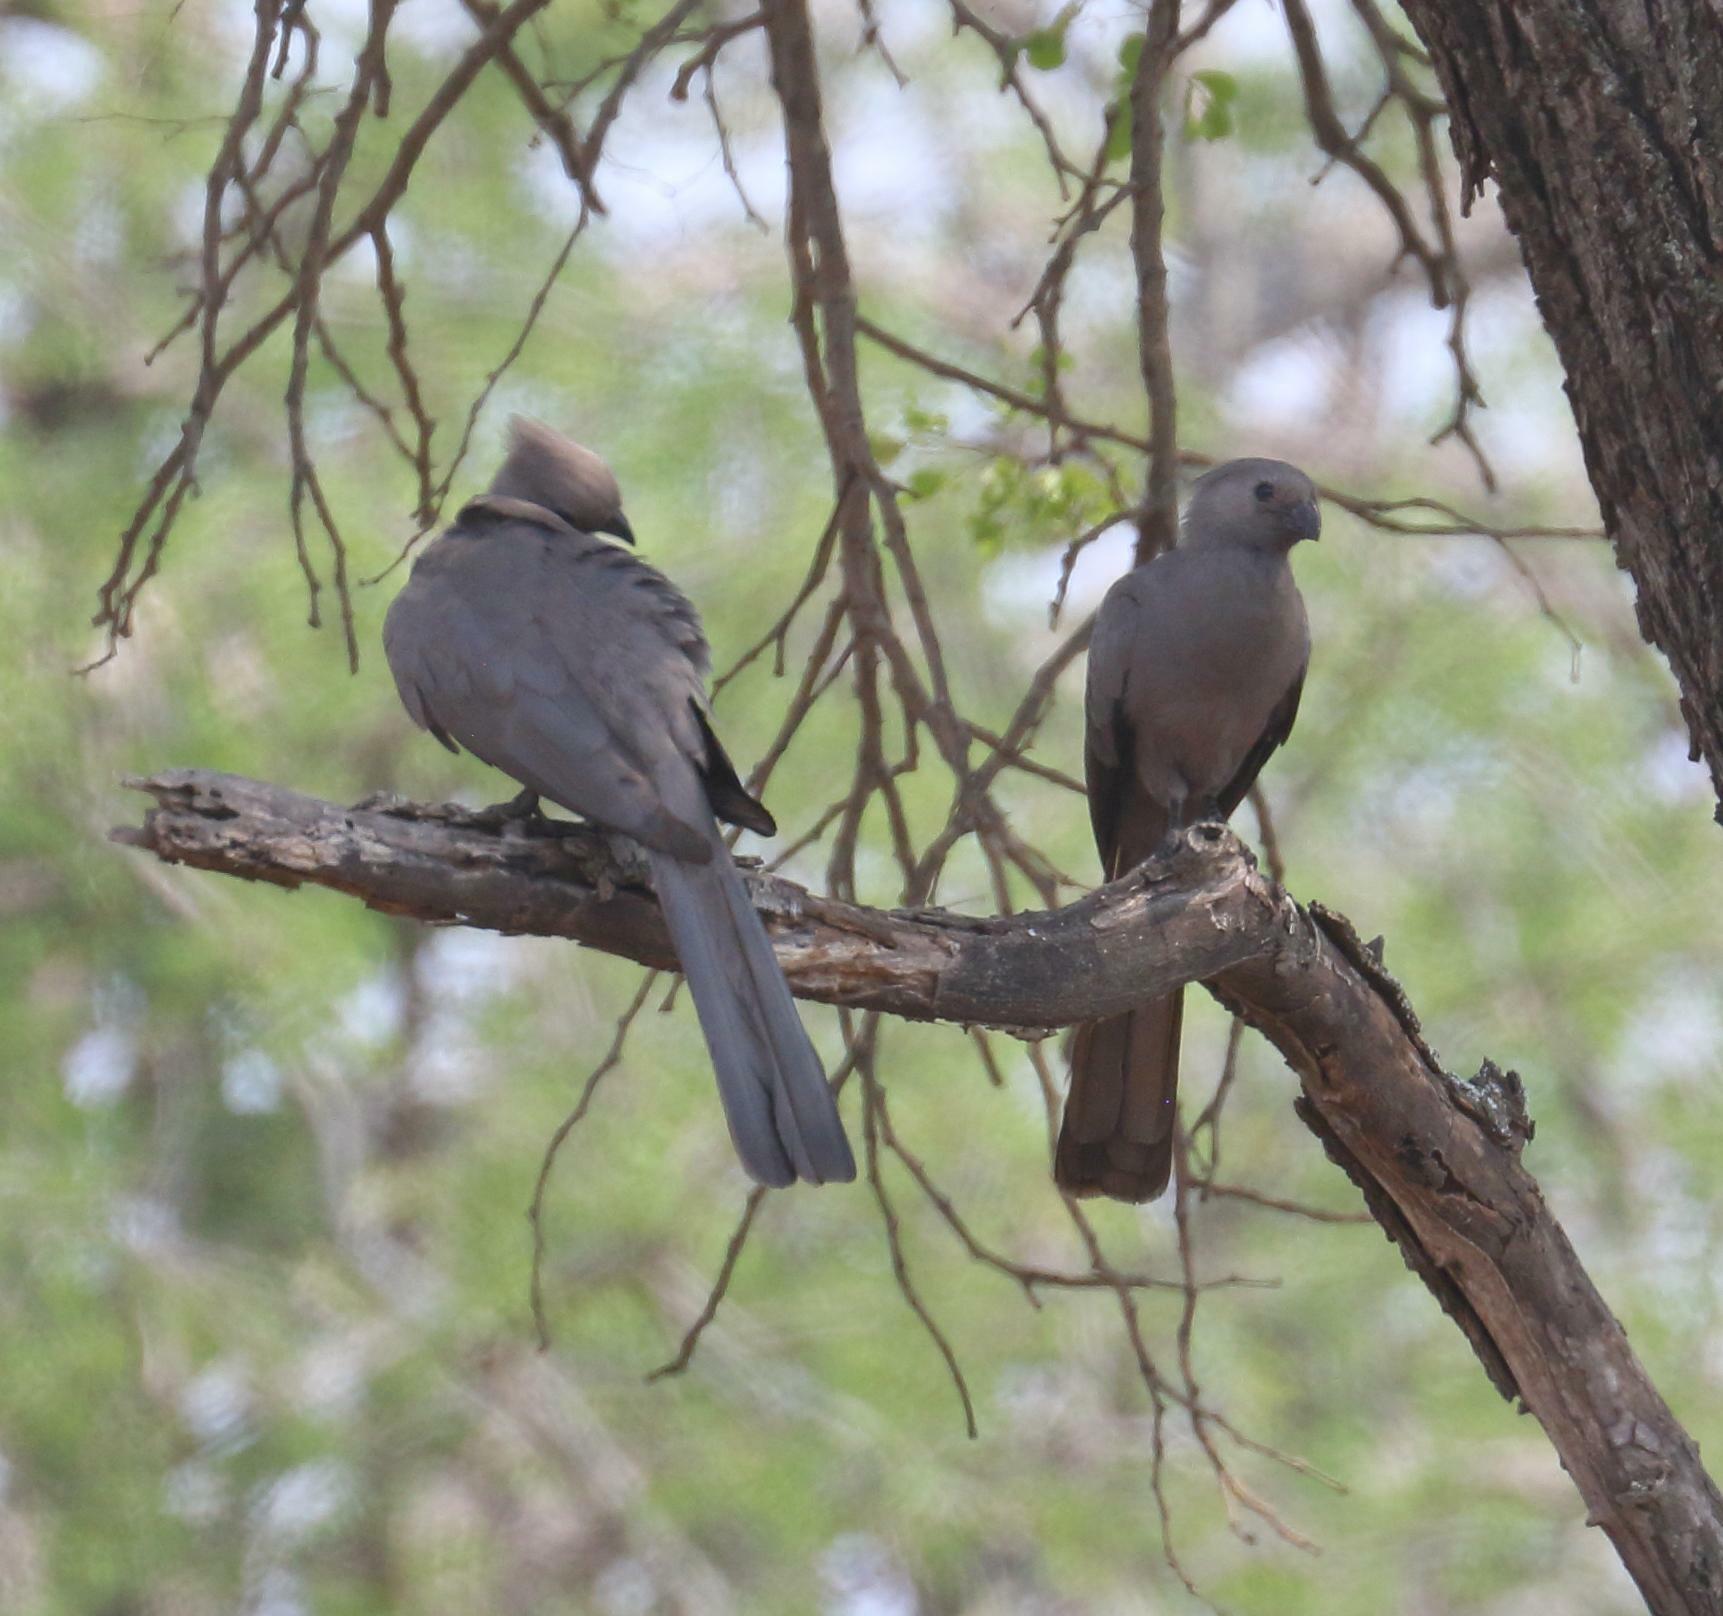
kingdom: Animalia
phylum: Chordata
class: Aves
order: Musophagiformes
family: Musophagidae
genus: Corythaixoides
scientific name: Corythaixoides concolor
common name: Grey go-away-bird
